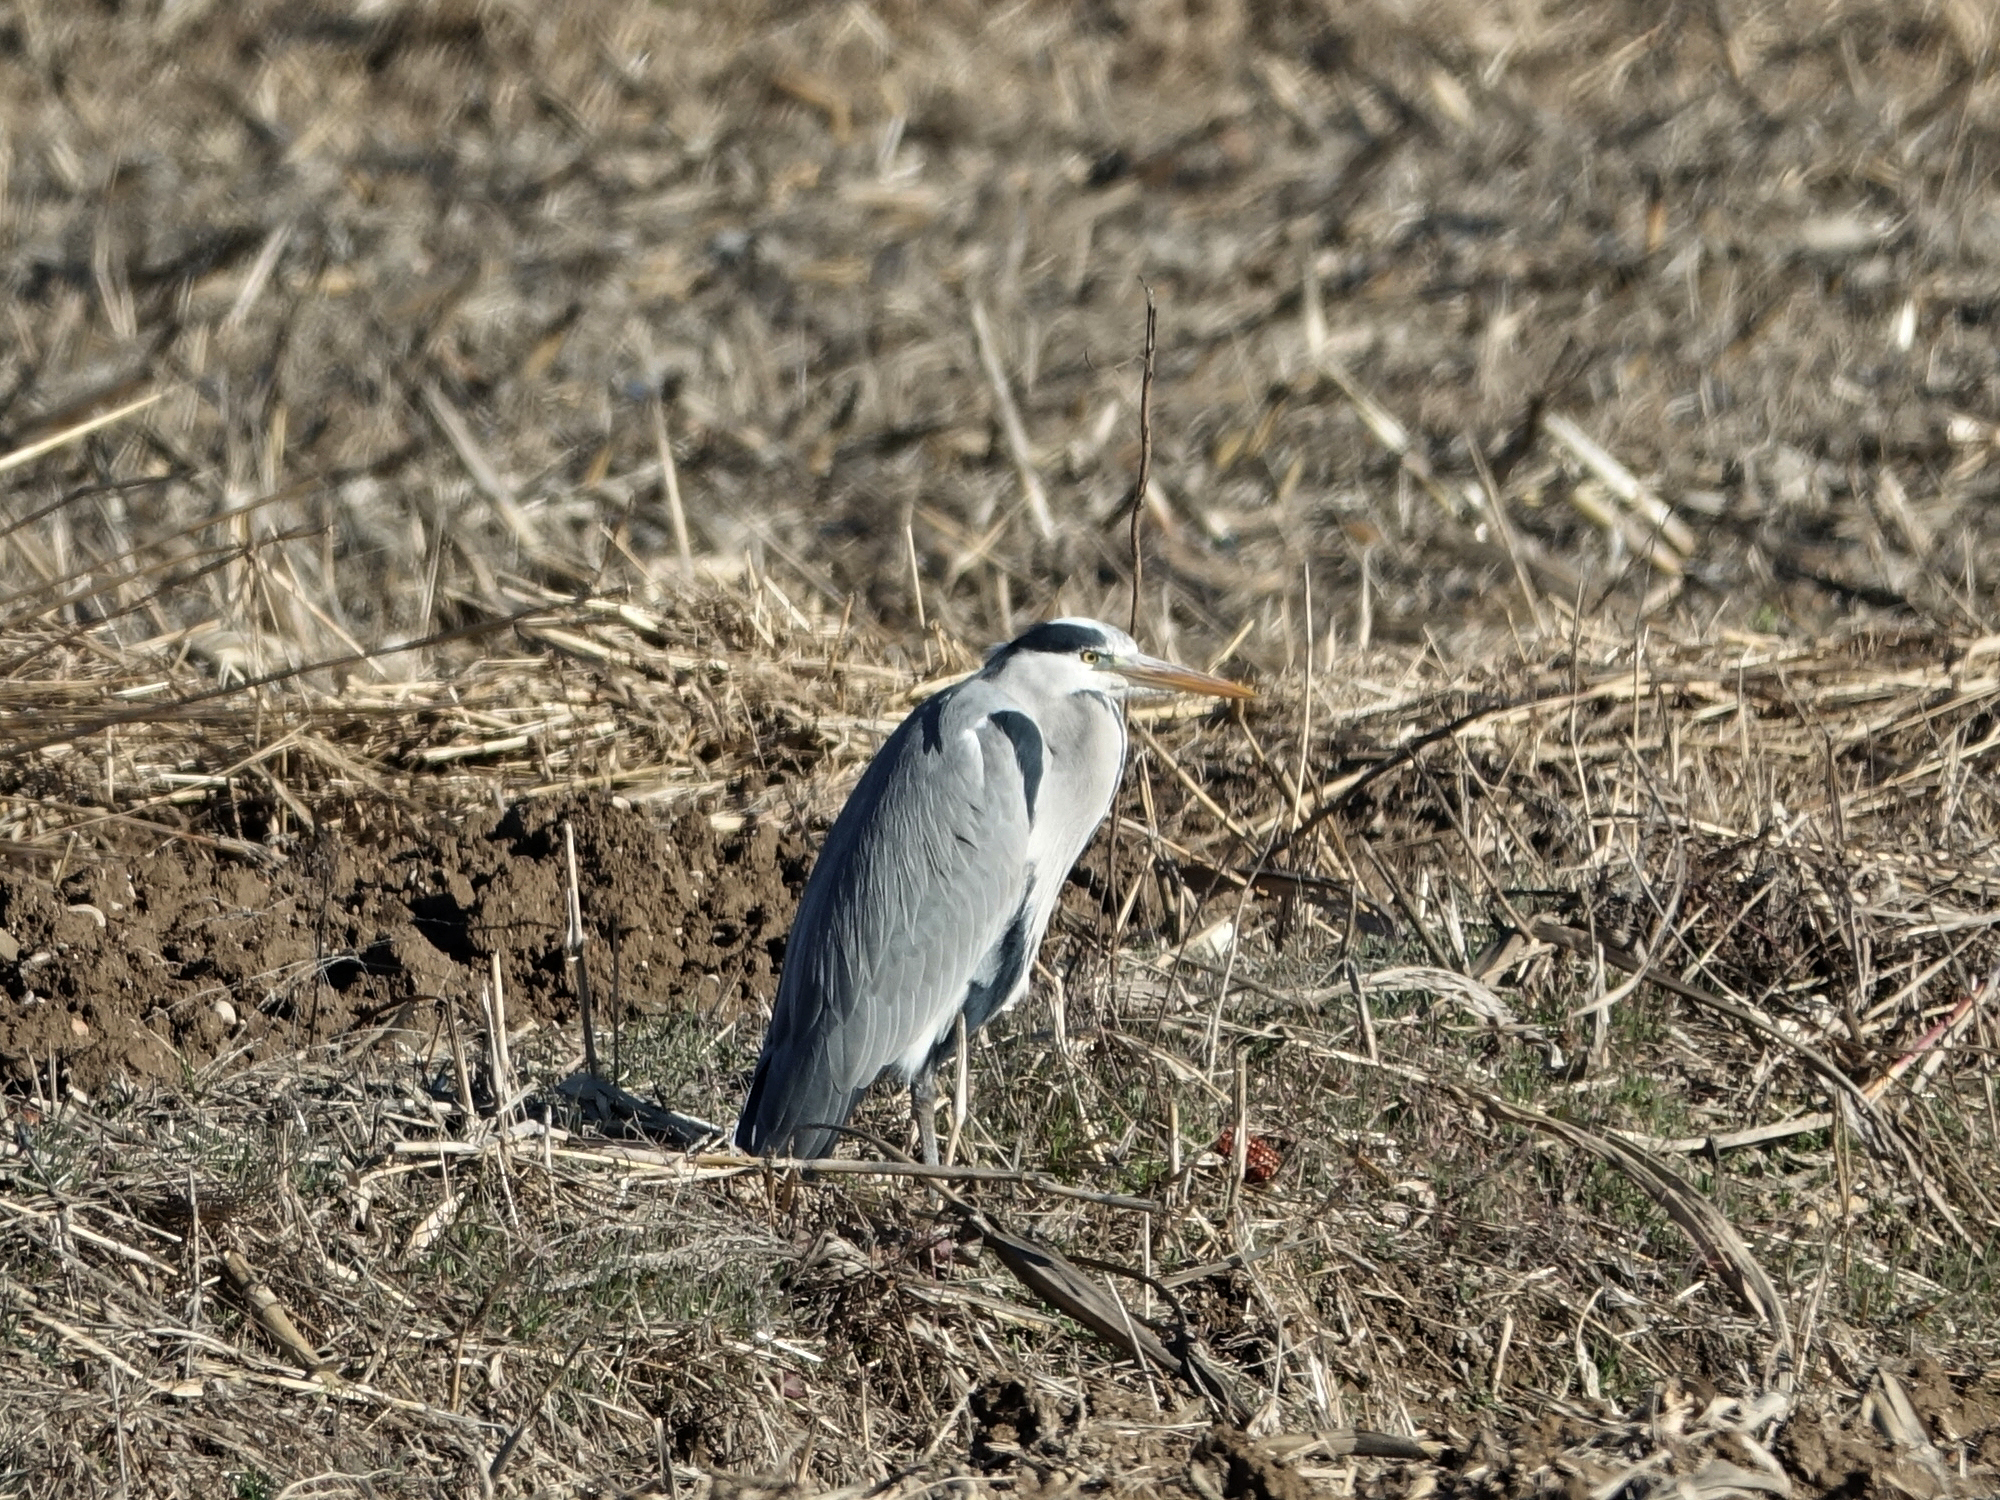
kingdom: Animalia
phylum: Chordata
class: Aves
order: Pelecaniformes
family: Ardeidae
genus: Ardea
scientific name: Ardea cinerea
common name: Grey heron
